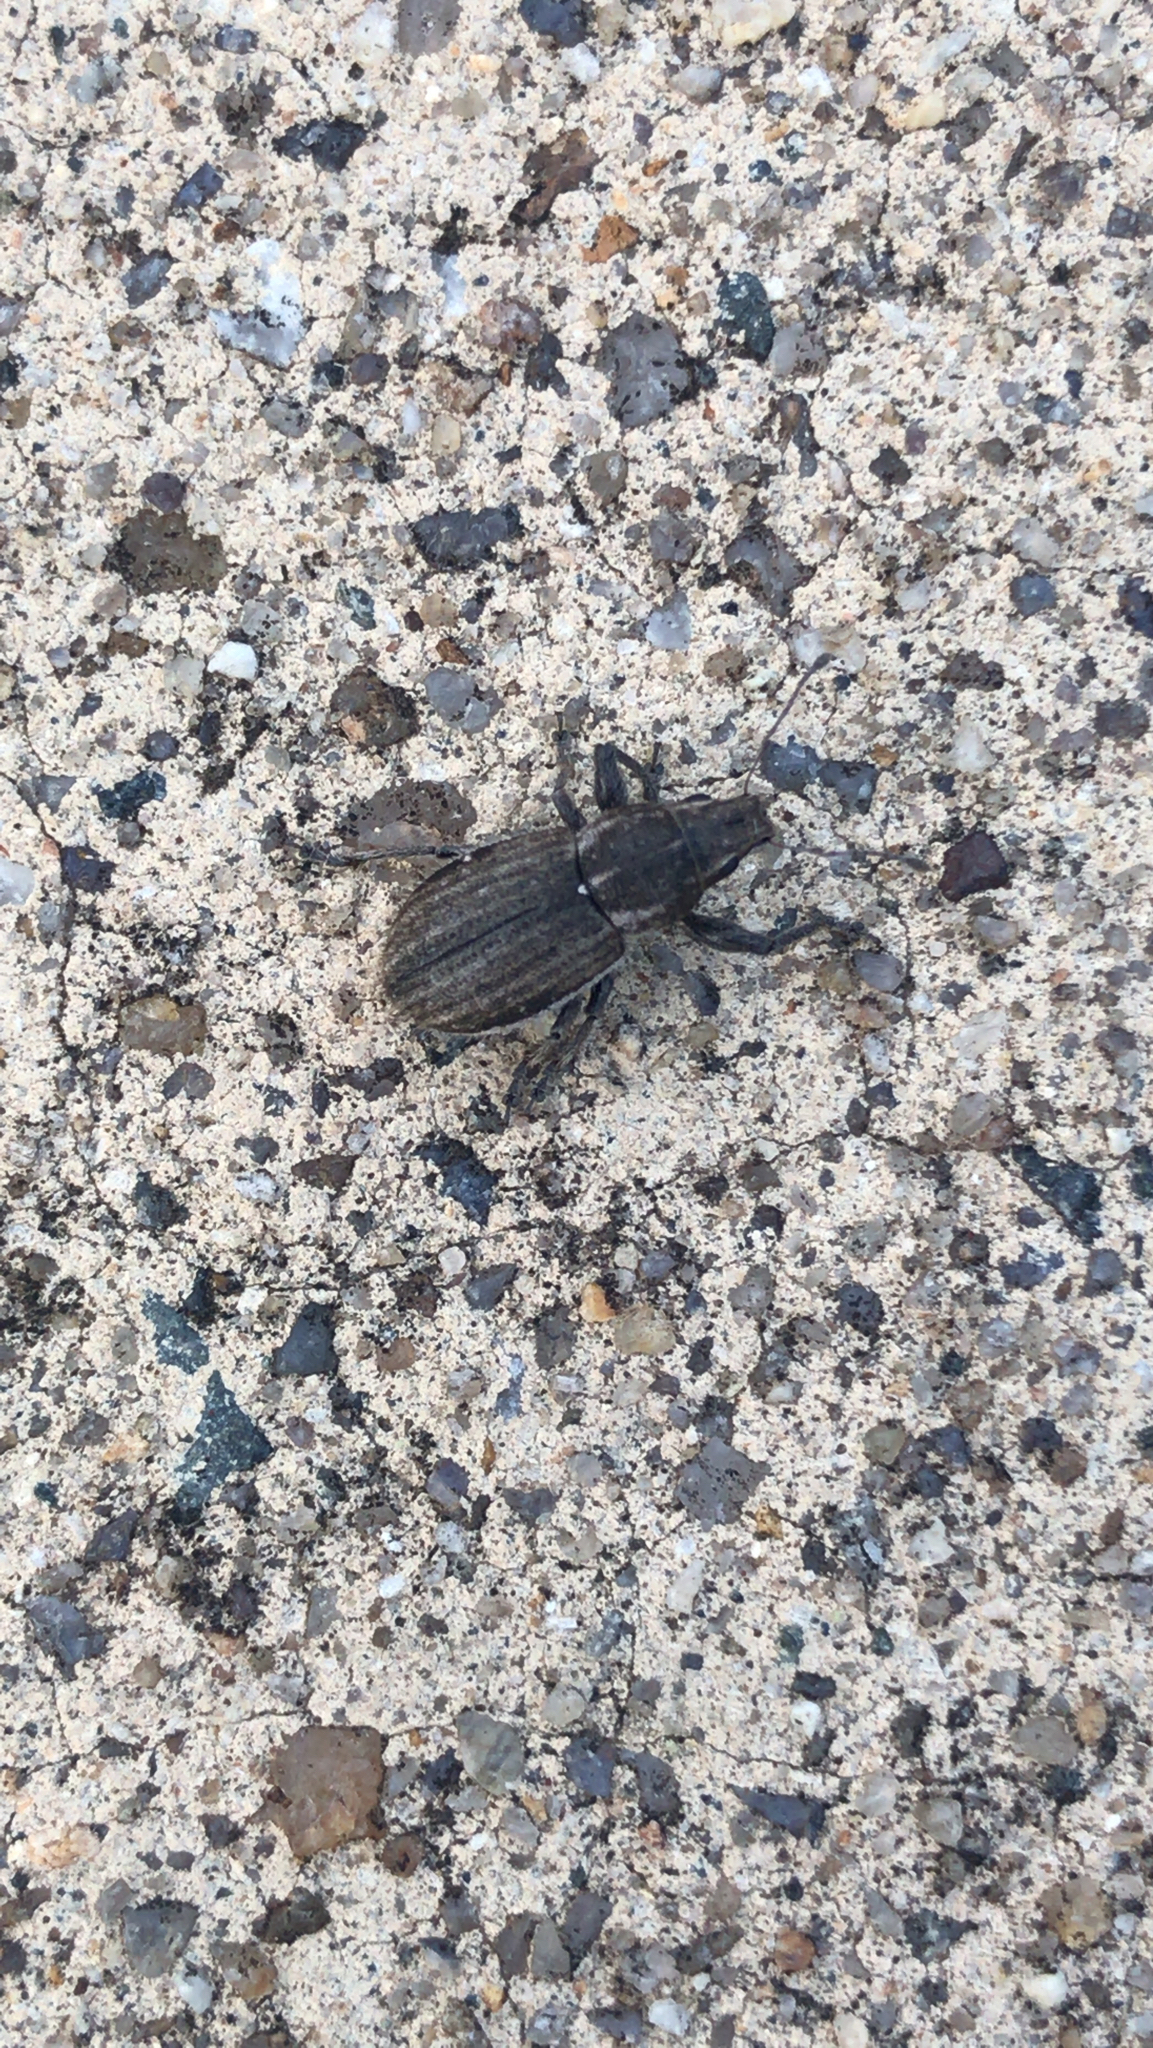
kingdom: Animalia
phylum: Arthropoda
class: Insecta
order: Coleoptera
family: Curculionidae
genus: Naupactus
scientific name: Naupactus leucoloma
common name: Whitefringed beetle
